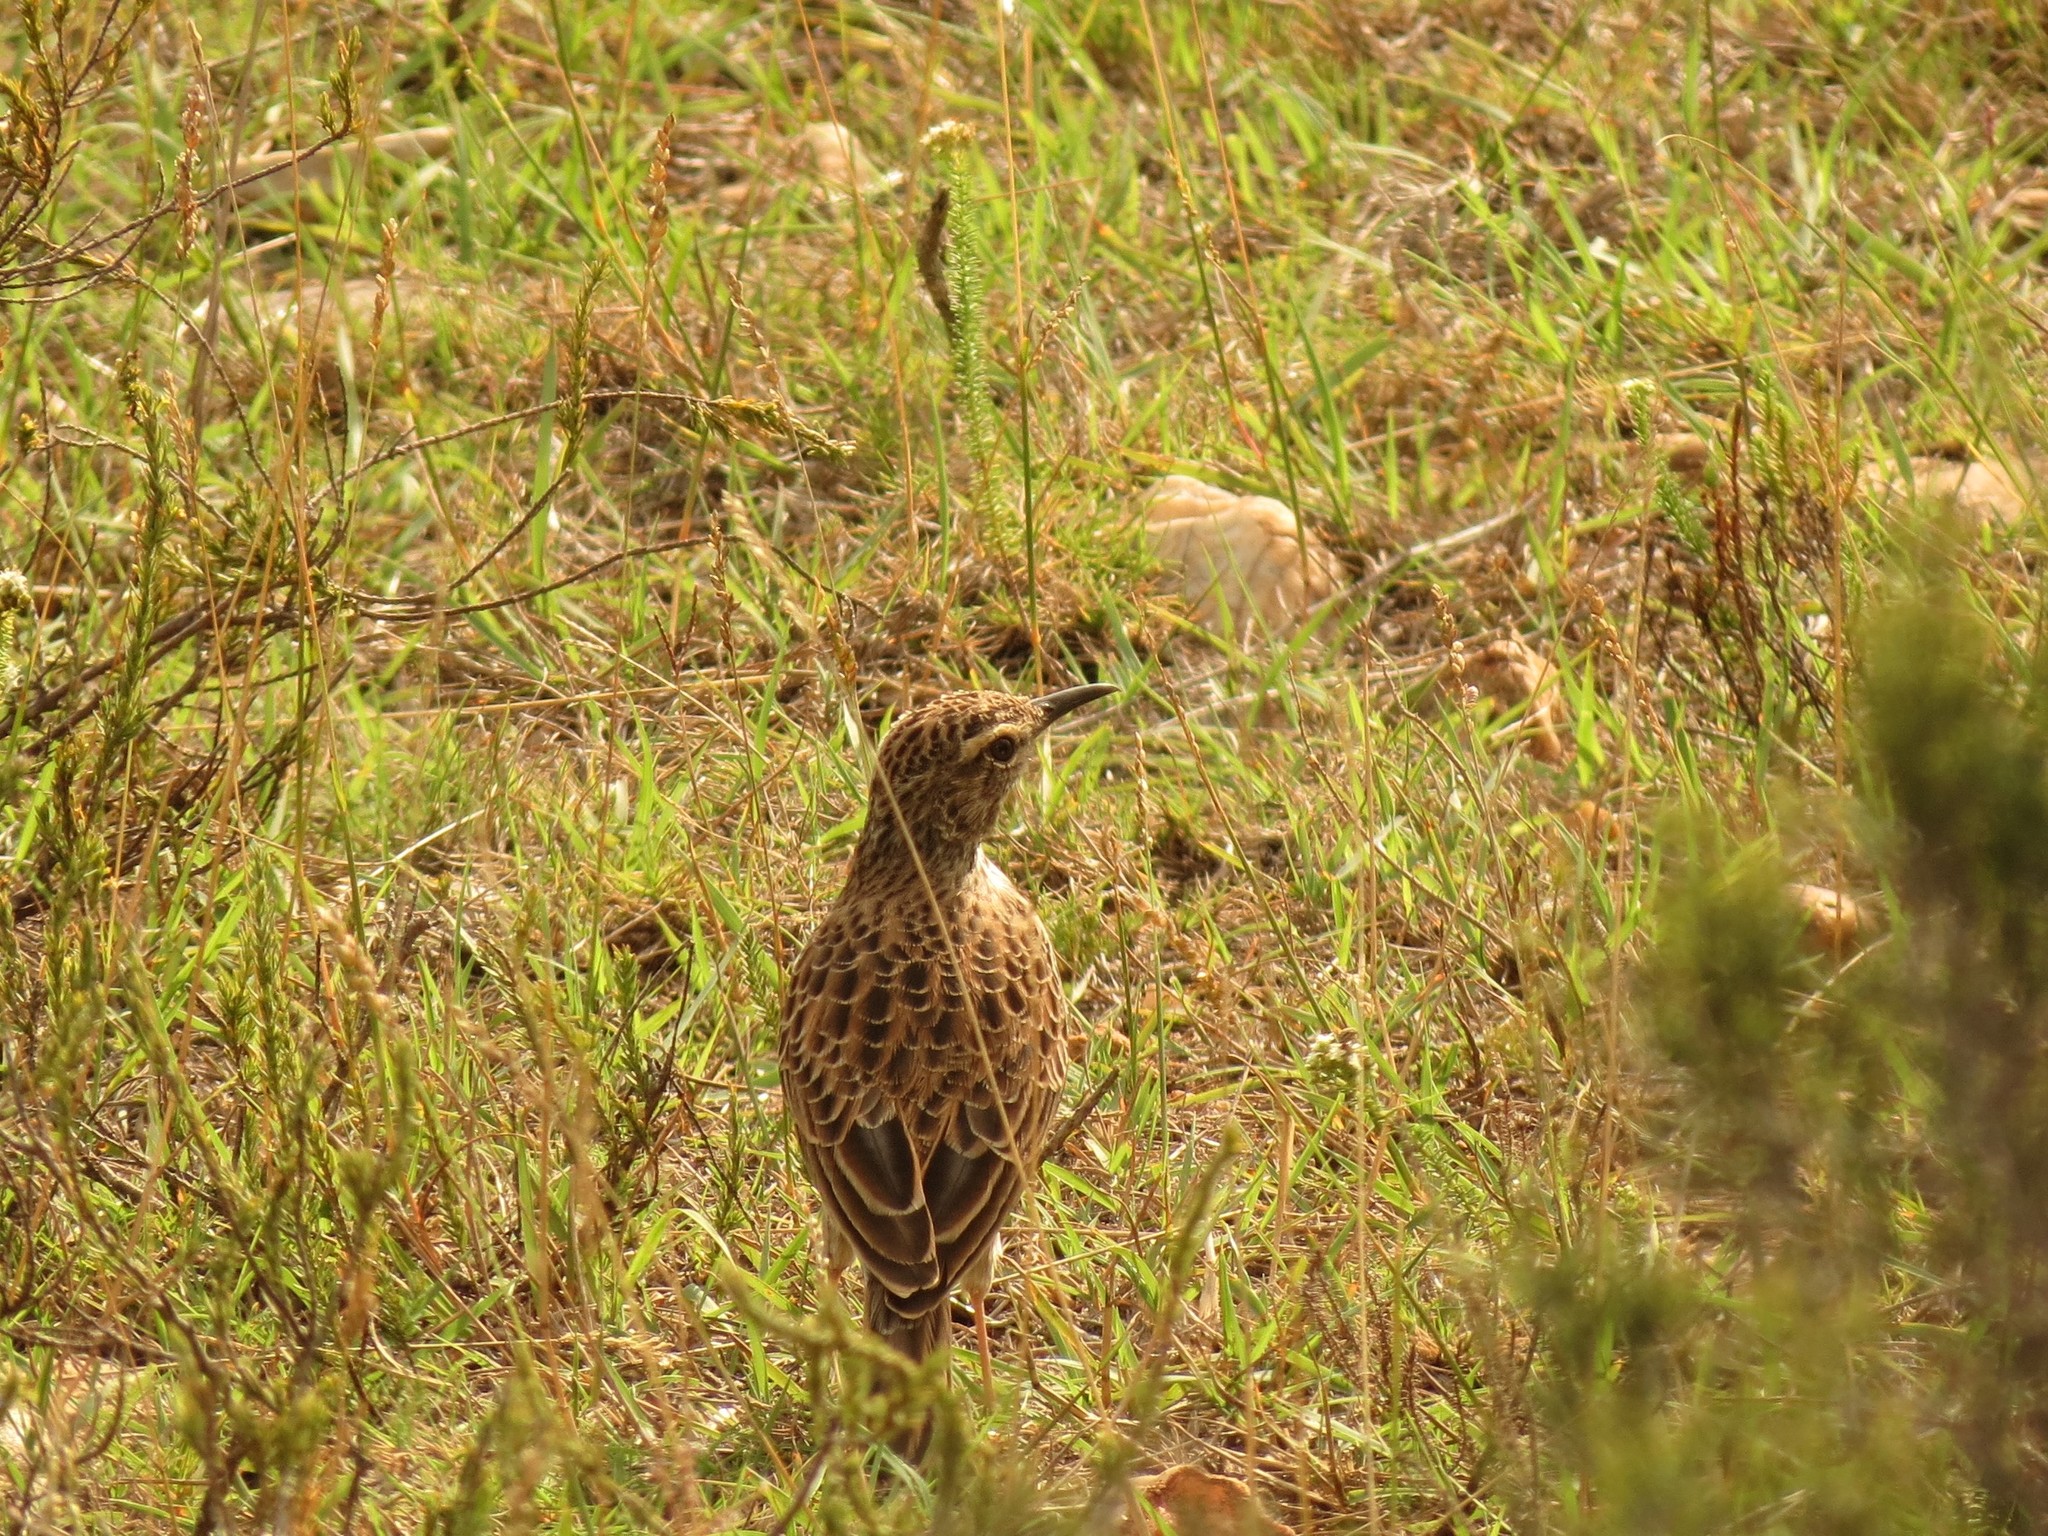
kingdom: Animalia
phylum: Chordata
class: Aves
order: Passeriformes
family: Alaudidae
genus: Certhilauda
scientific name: Certhilauda curvirostris
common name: Cape long-billed lark
